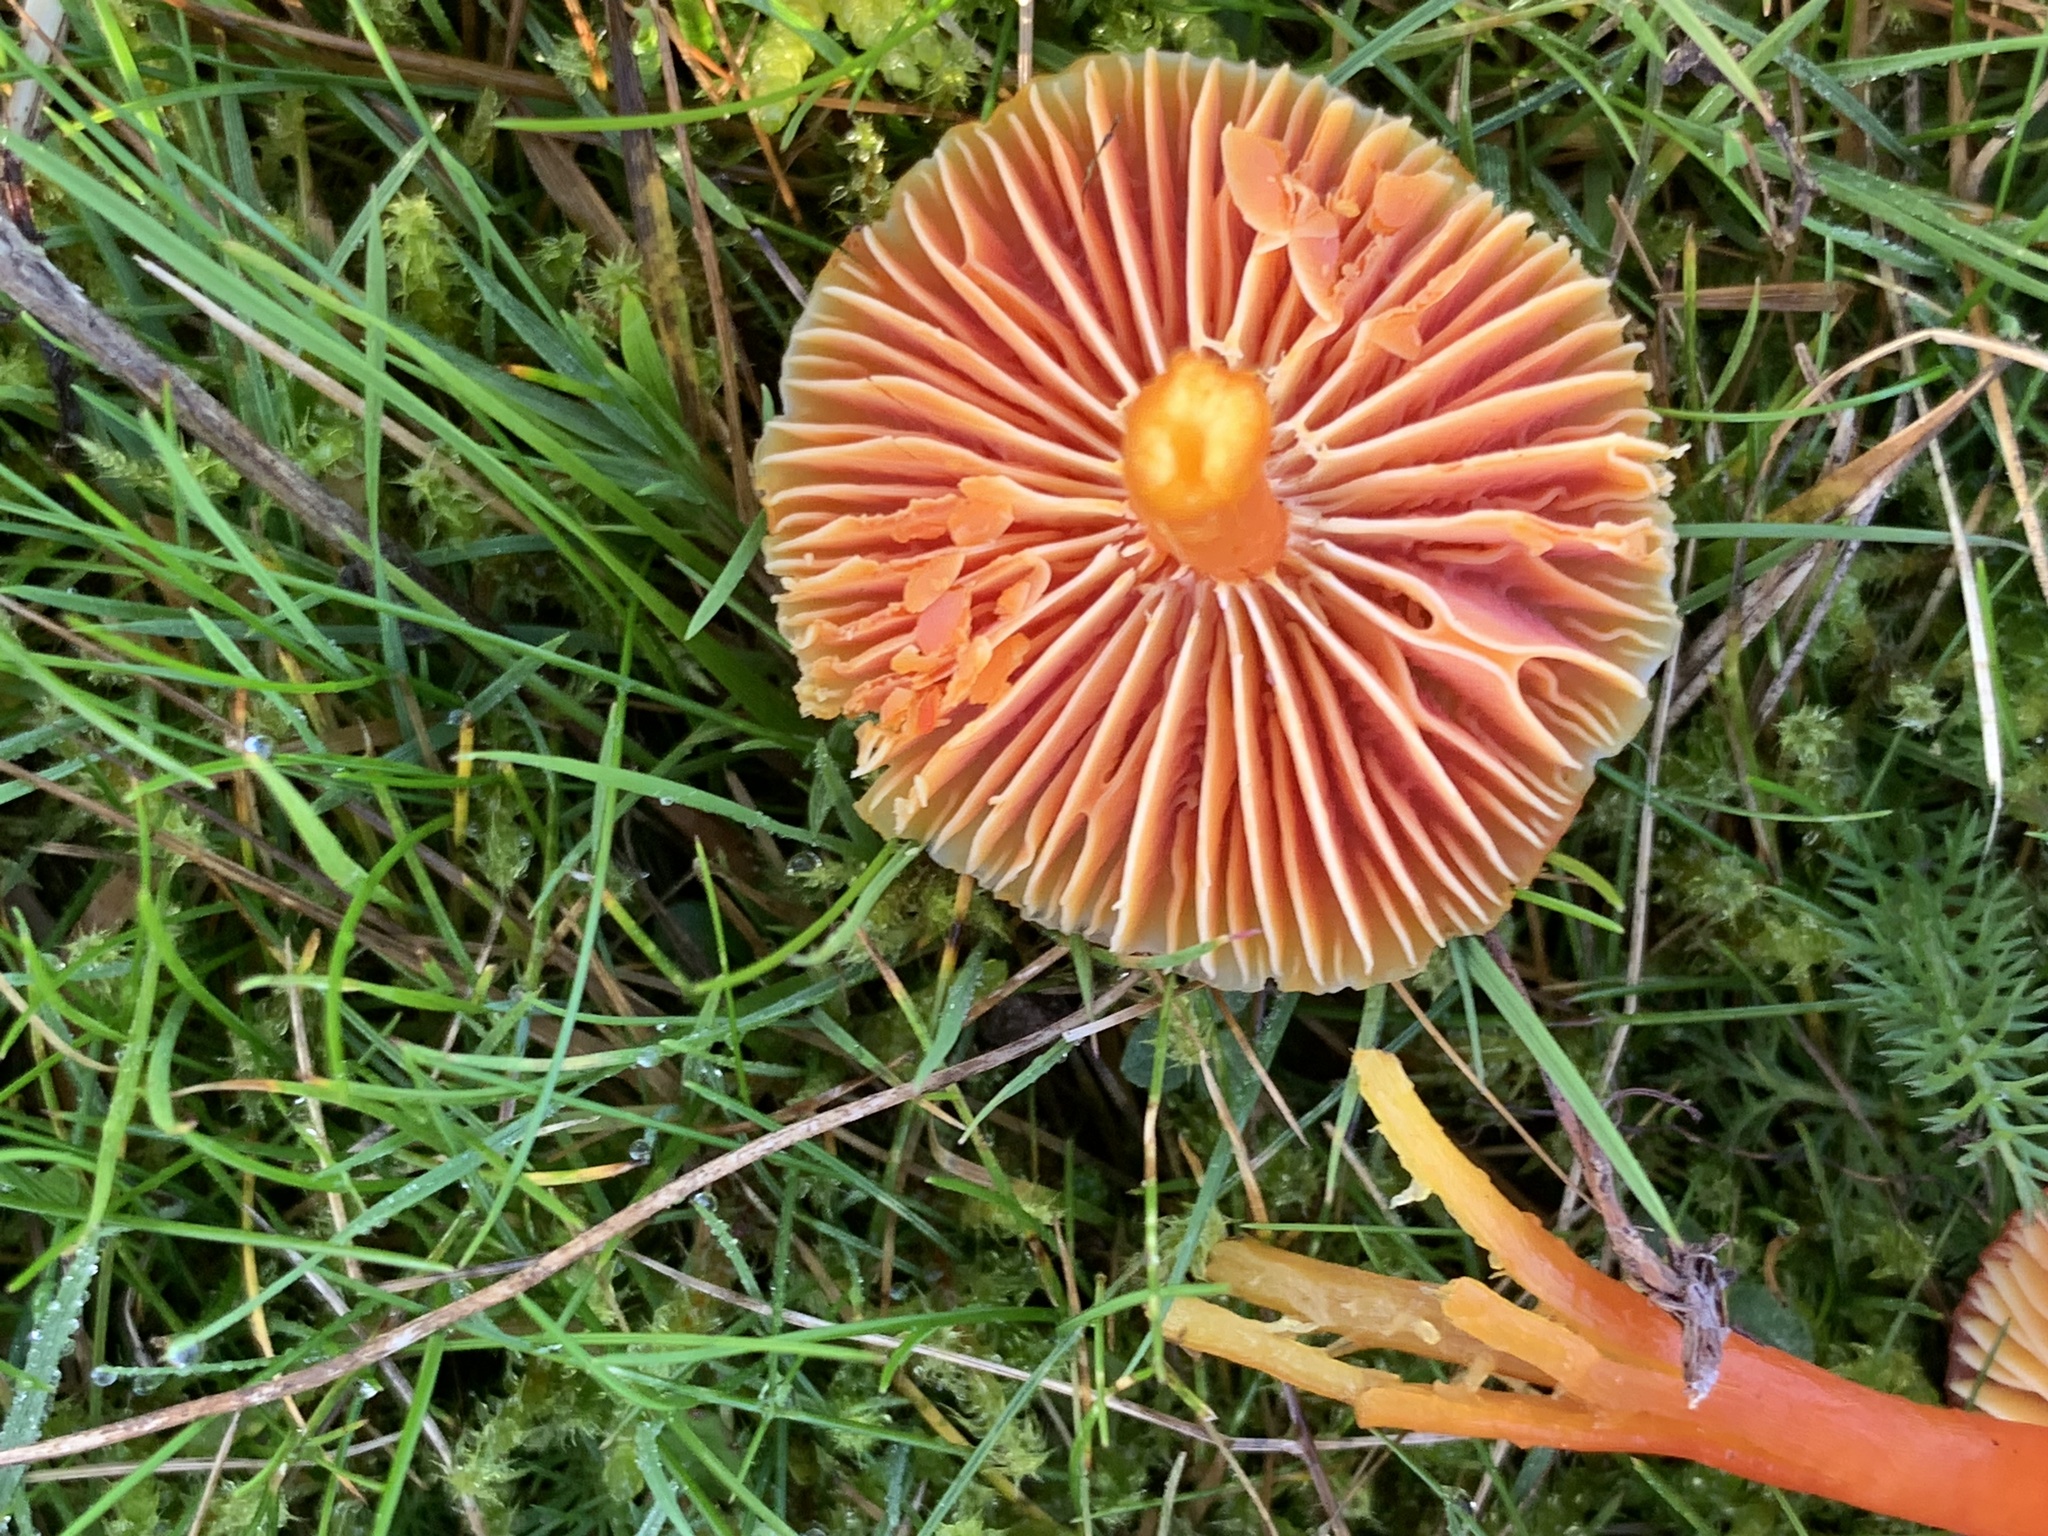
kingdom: Fungi
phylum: Basidiomycota
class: Agaricomycetes
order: Agaricales
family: Hygrophoraceae
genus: Hygrocybe
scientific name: Hygrocybe coccinea
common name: Scarlet hood
